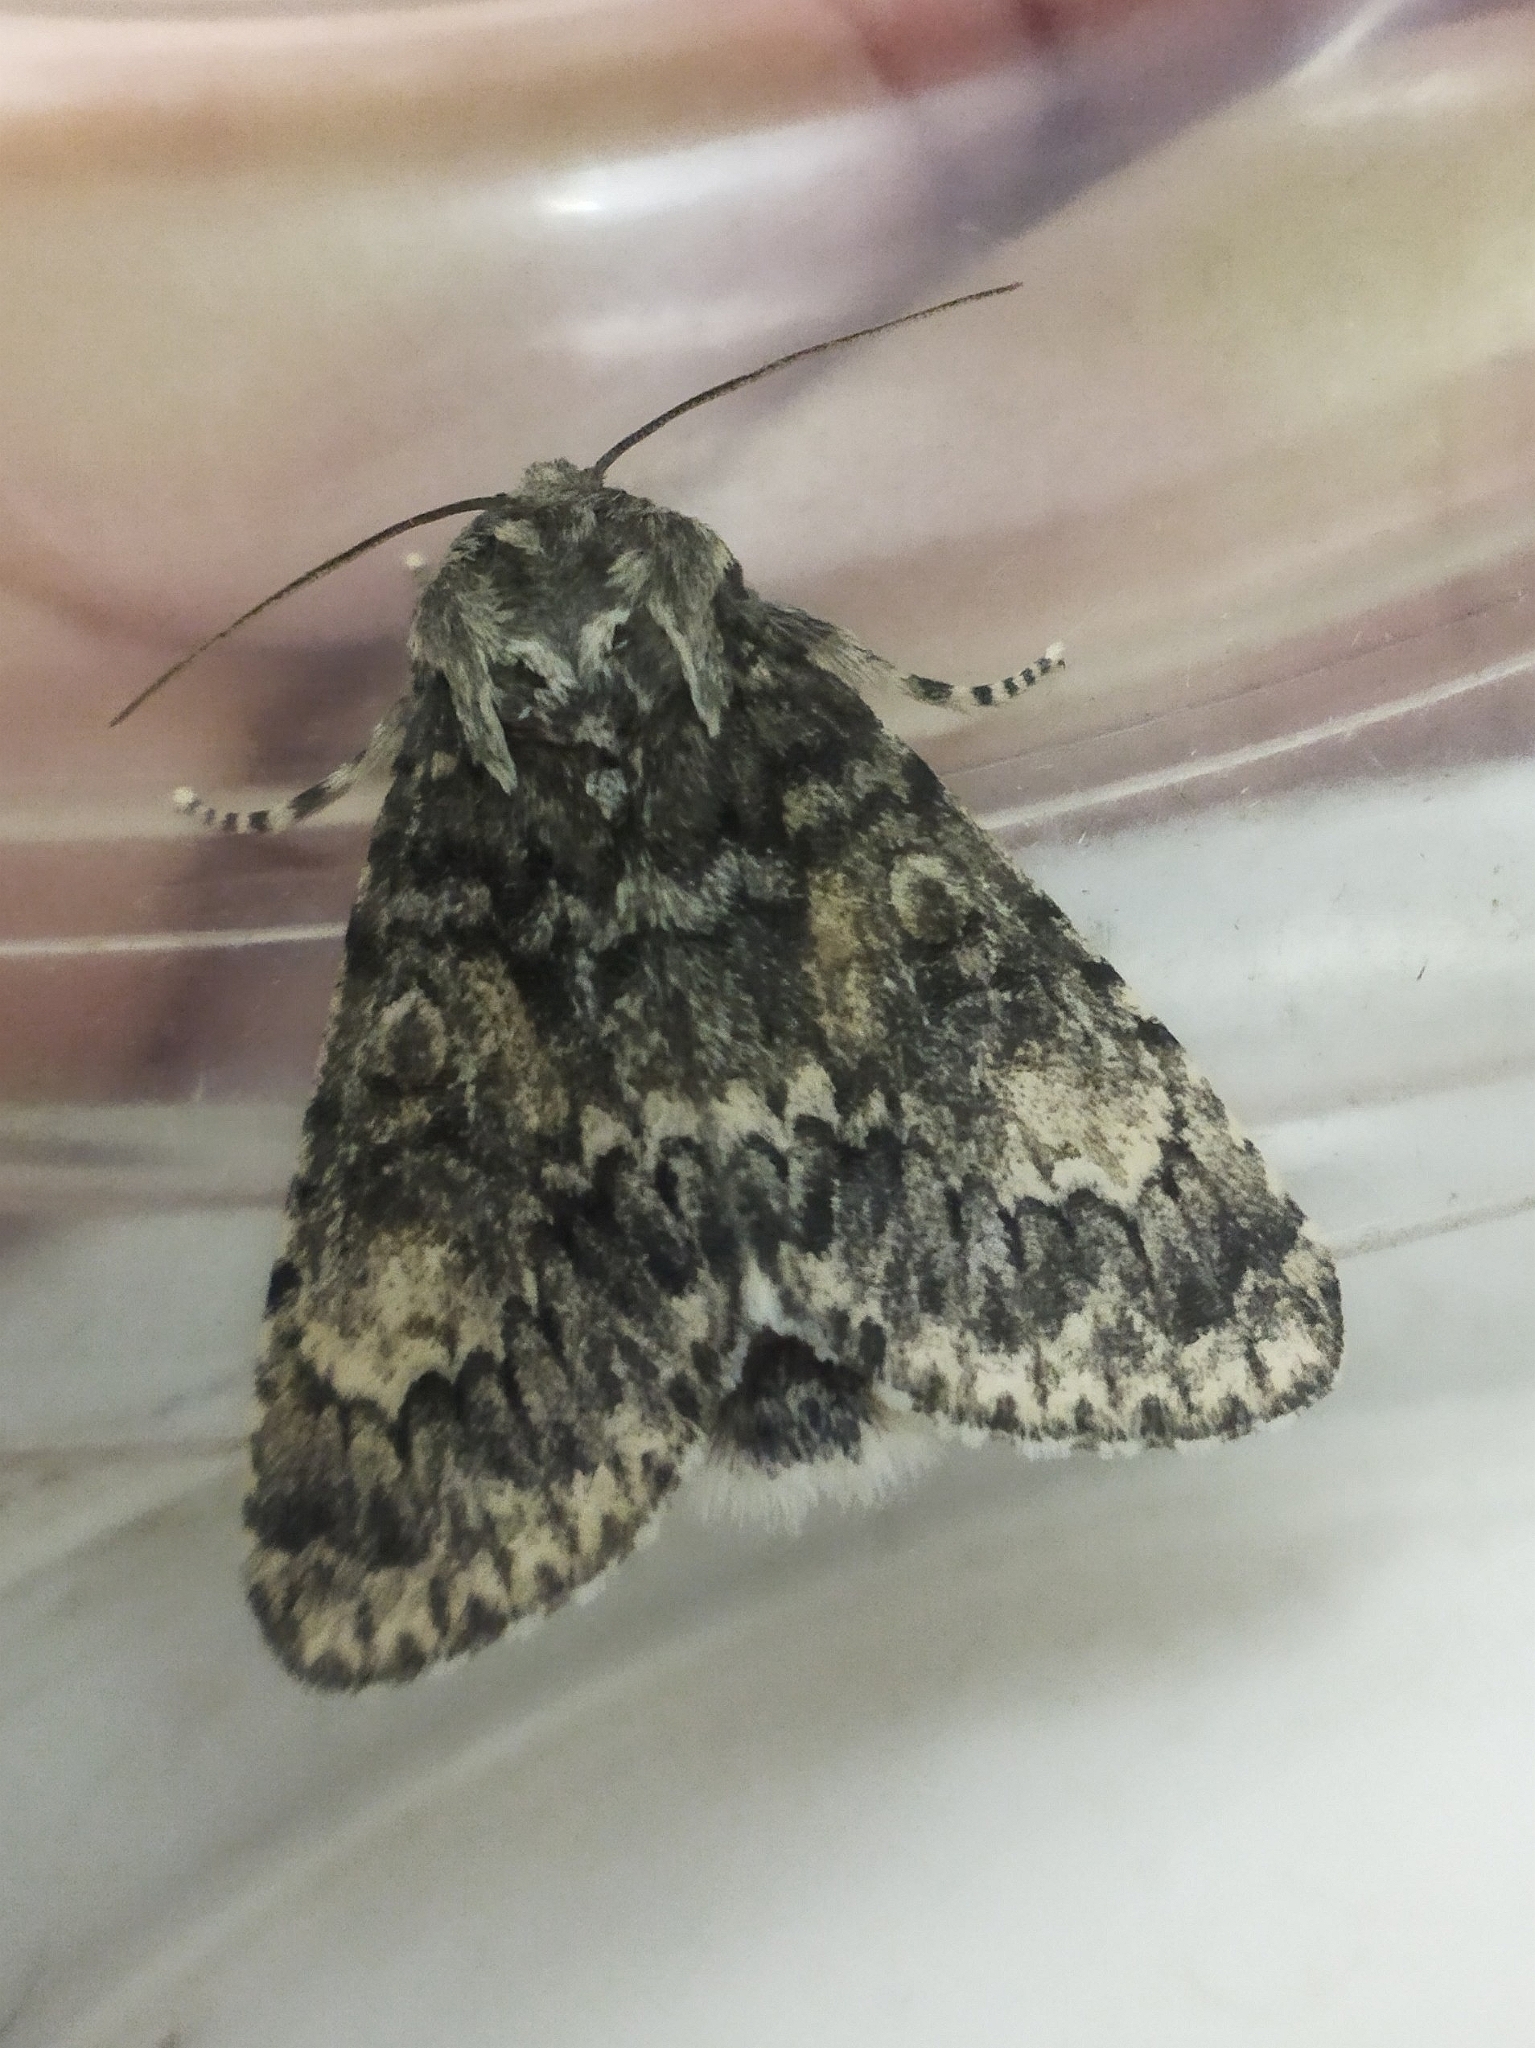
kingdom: Animalia
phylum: Arthropoda
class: Insecta
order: Lepidoptera
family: Noctuidae
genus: Acronicta
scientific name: Acronicta megacephala
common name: Poplar grey
